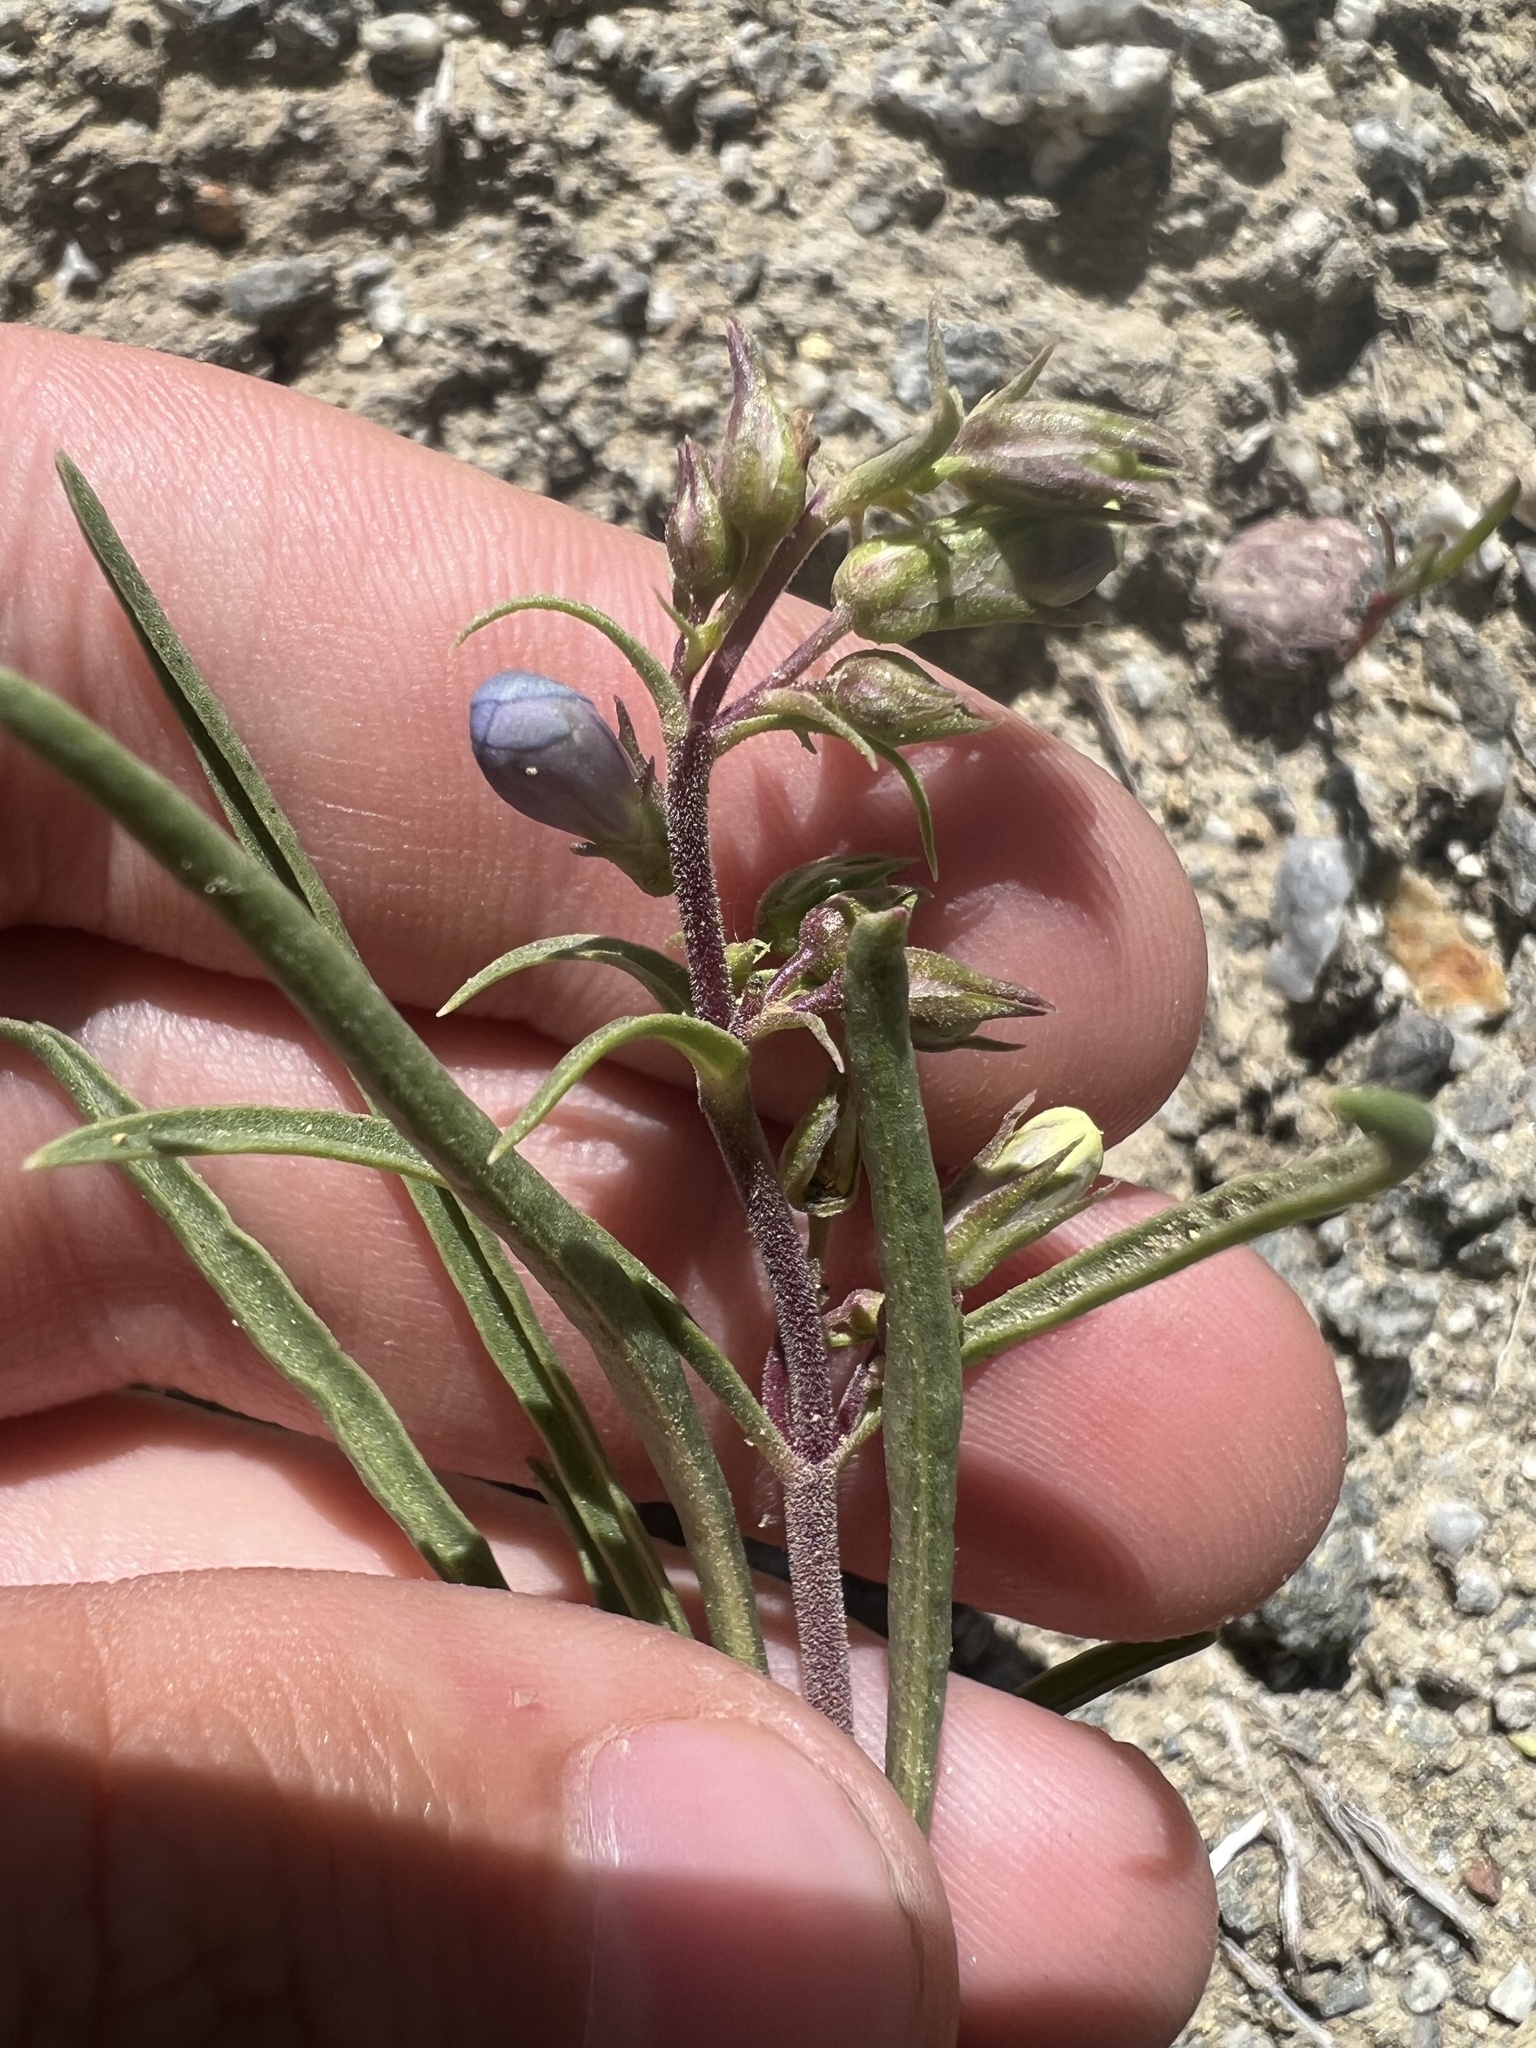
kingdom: Plantae
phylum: Tracheophyta
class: Magnoliopsida
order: Lamiales
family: Plantaginaceae
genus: Penstemon
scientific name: Penstemon penlandii
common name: Penland's beardtongue
